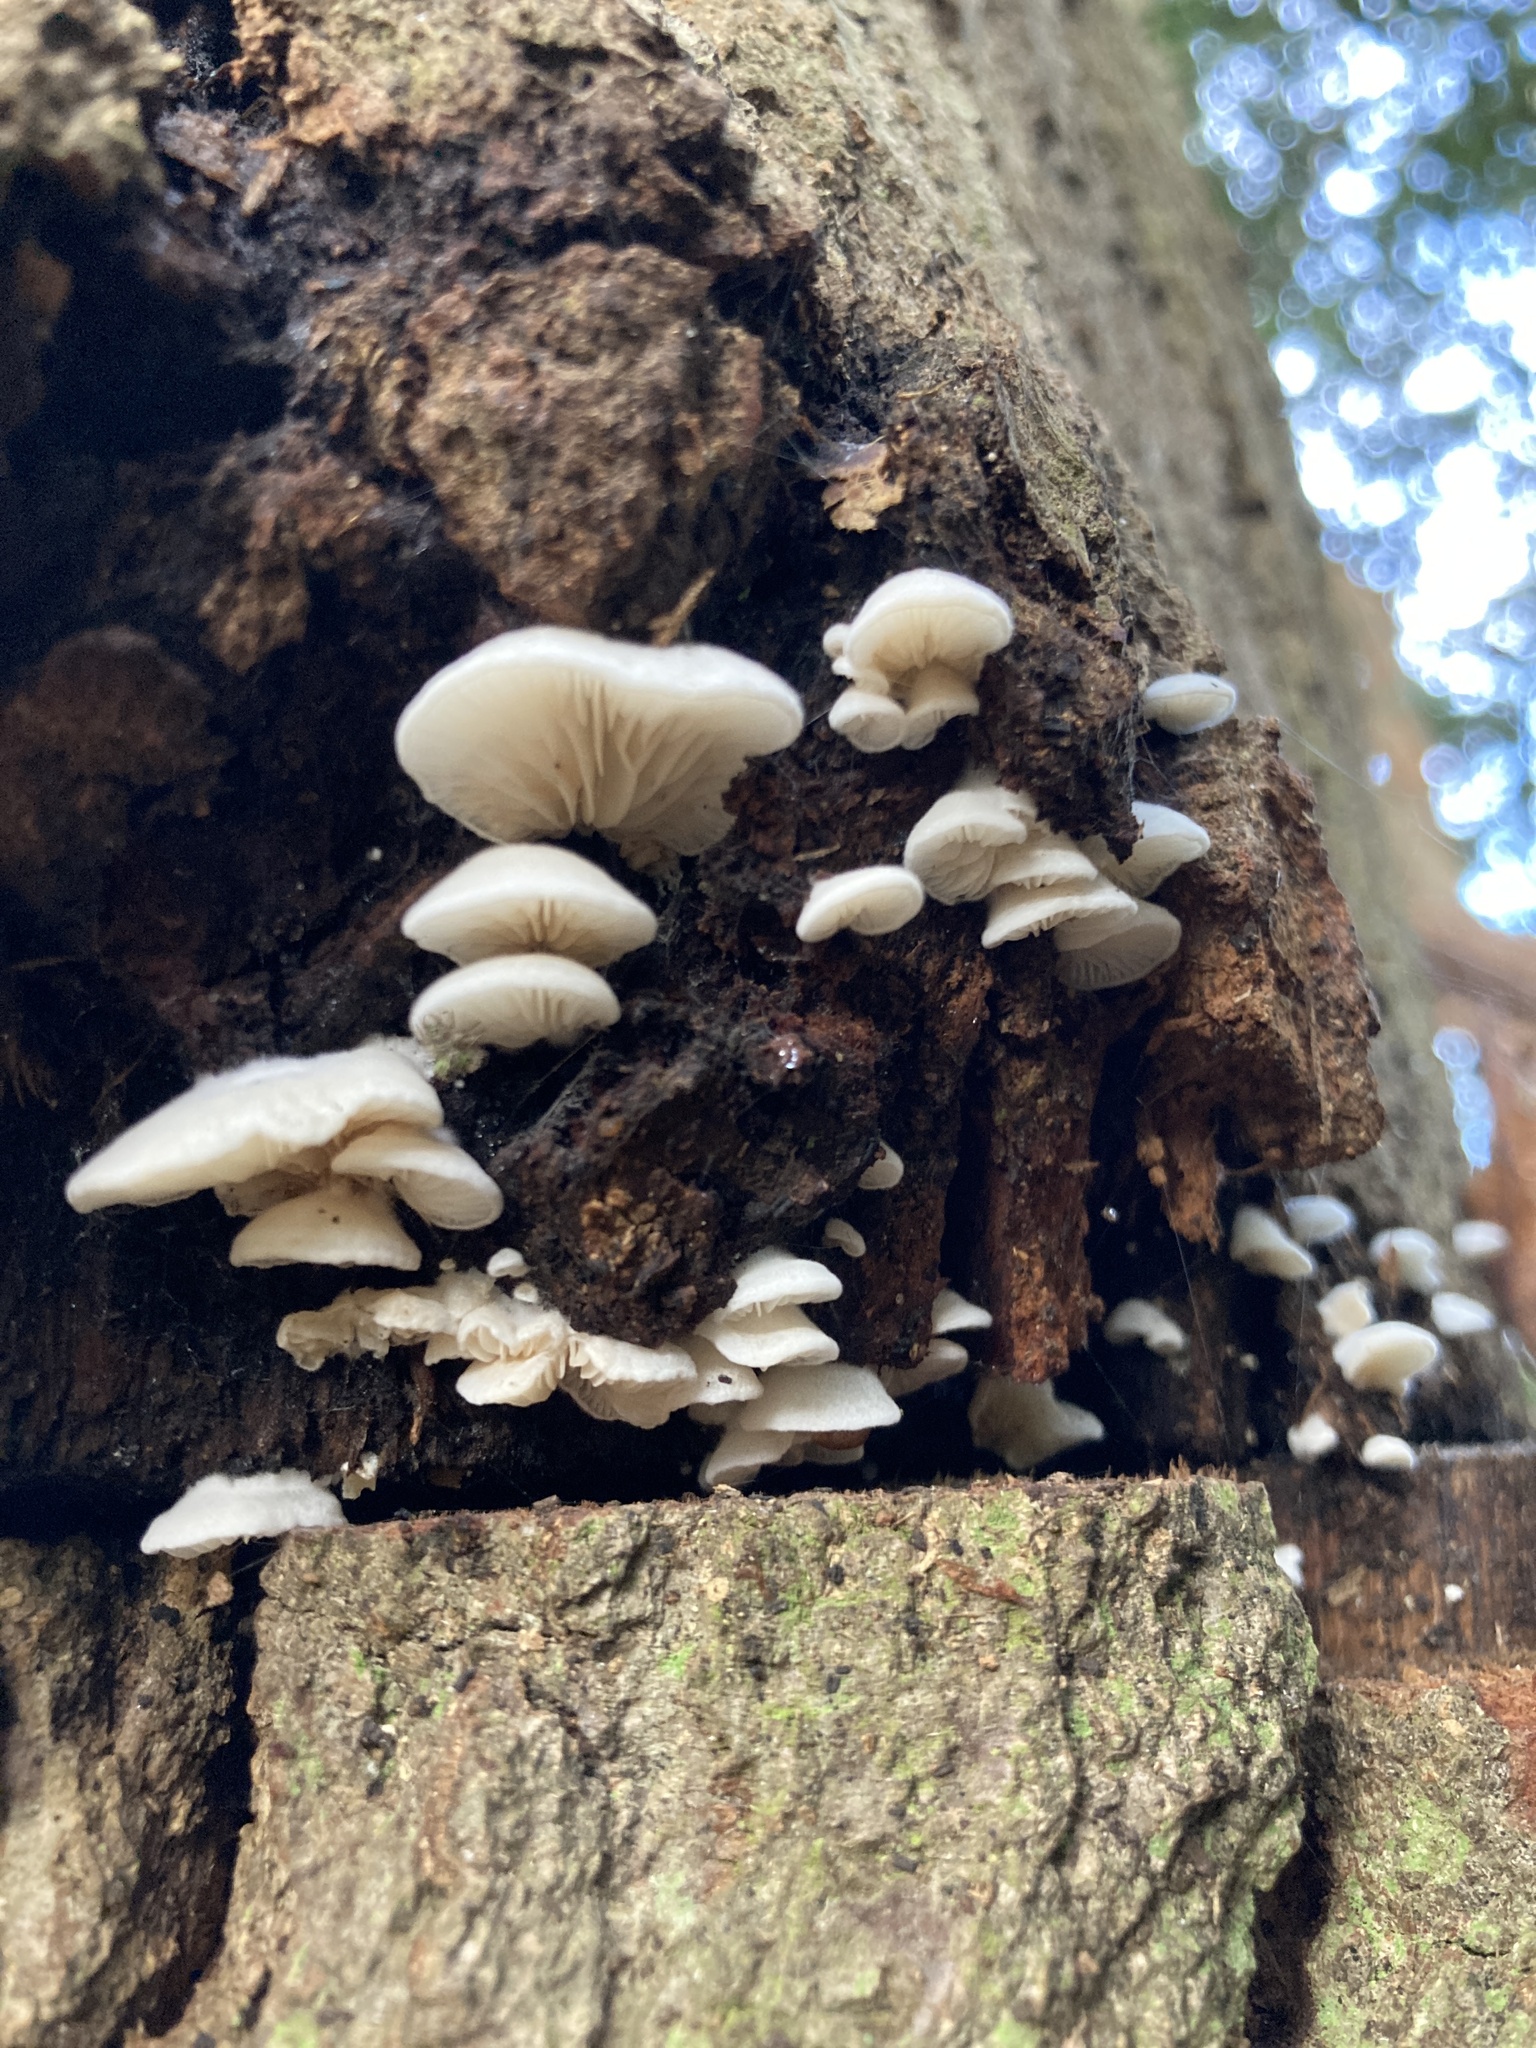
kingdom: Fungi
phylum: Basidiomycota
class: Agaricomycetes
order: Agaricales
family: Crepidotaceae
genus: Crepidotus
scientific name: Crepidotus variabilis
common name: Variable oysterling
